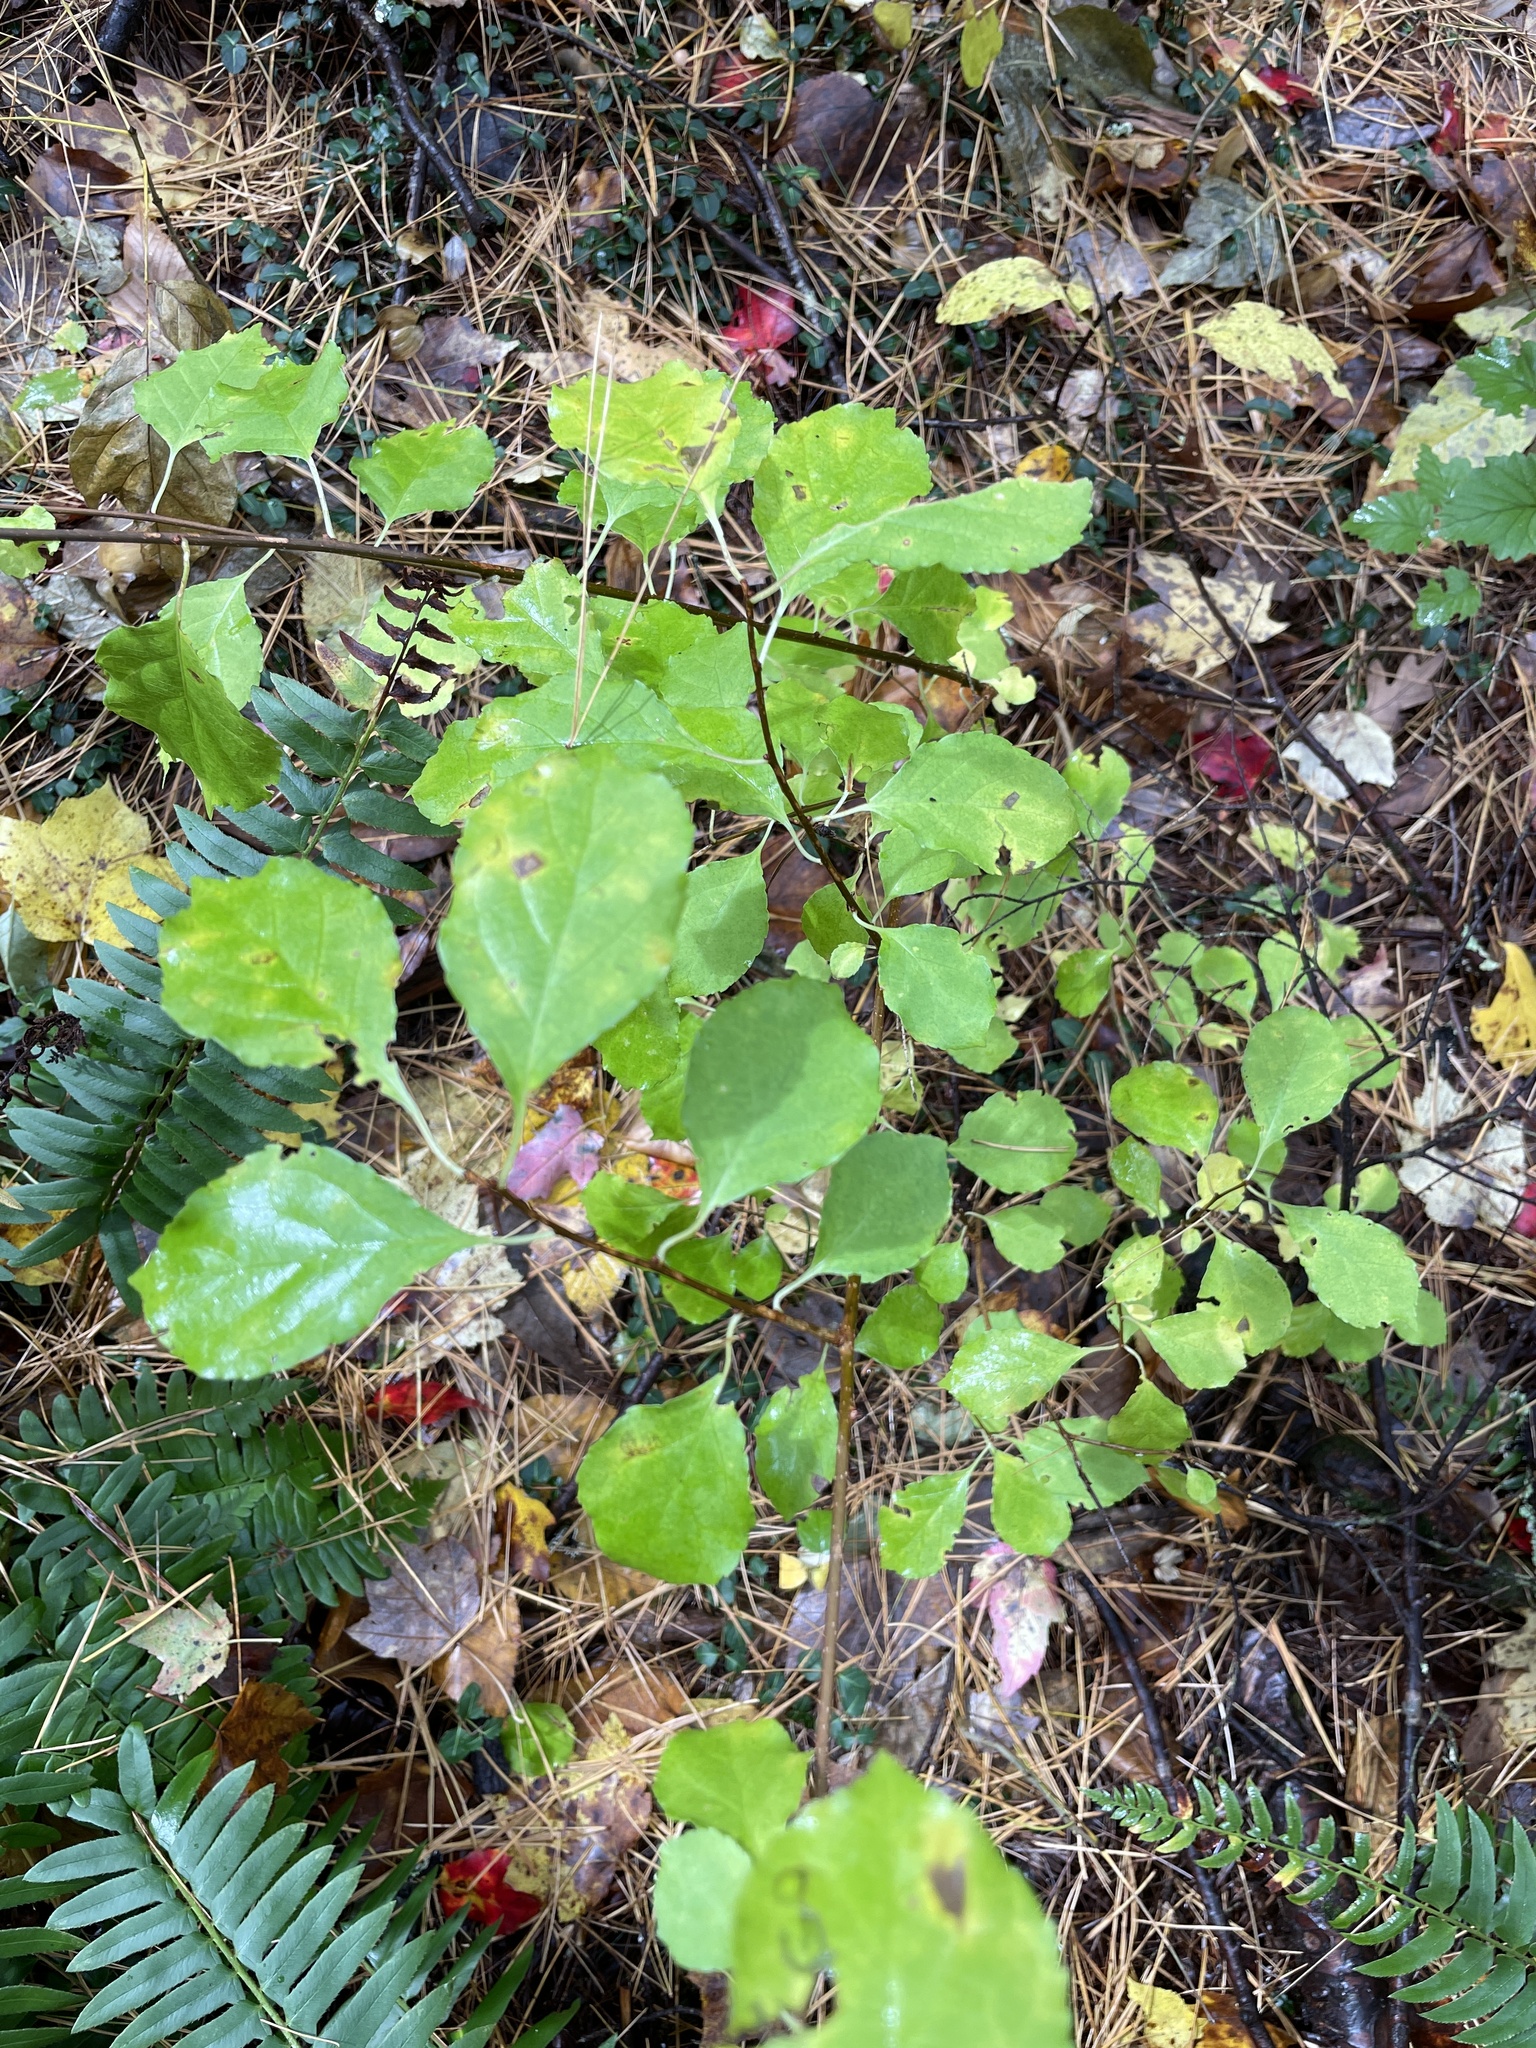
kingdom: Plantae
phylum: Tracheophyta
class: Magnoliopsida
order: Celastrales
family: Celastraceae
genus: Celastrus
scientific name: Celastrus orbiculatus
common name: Oriental bittersweet
